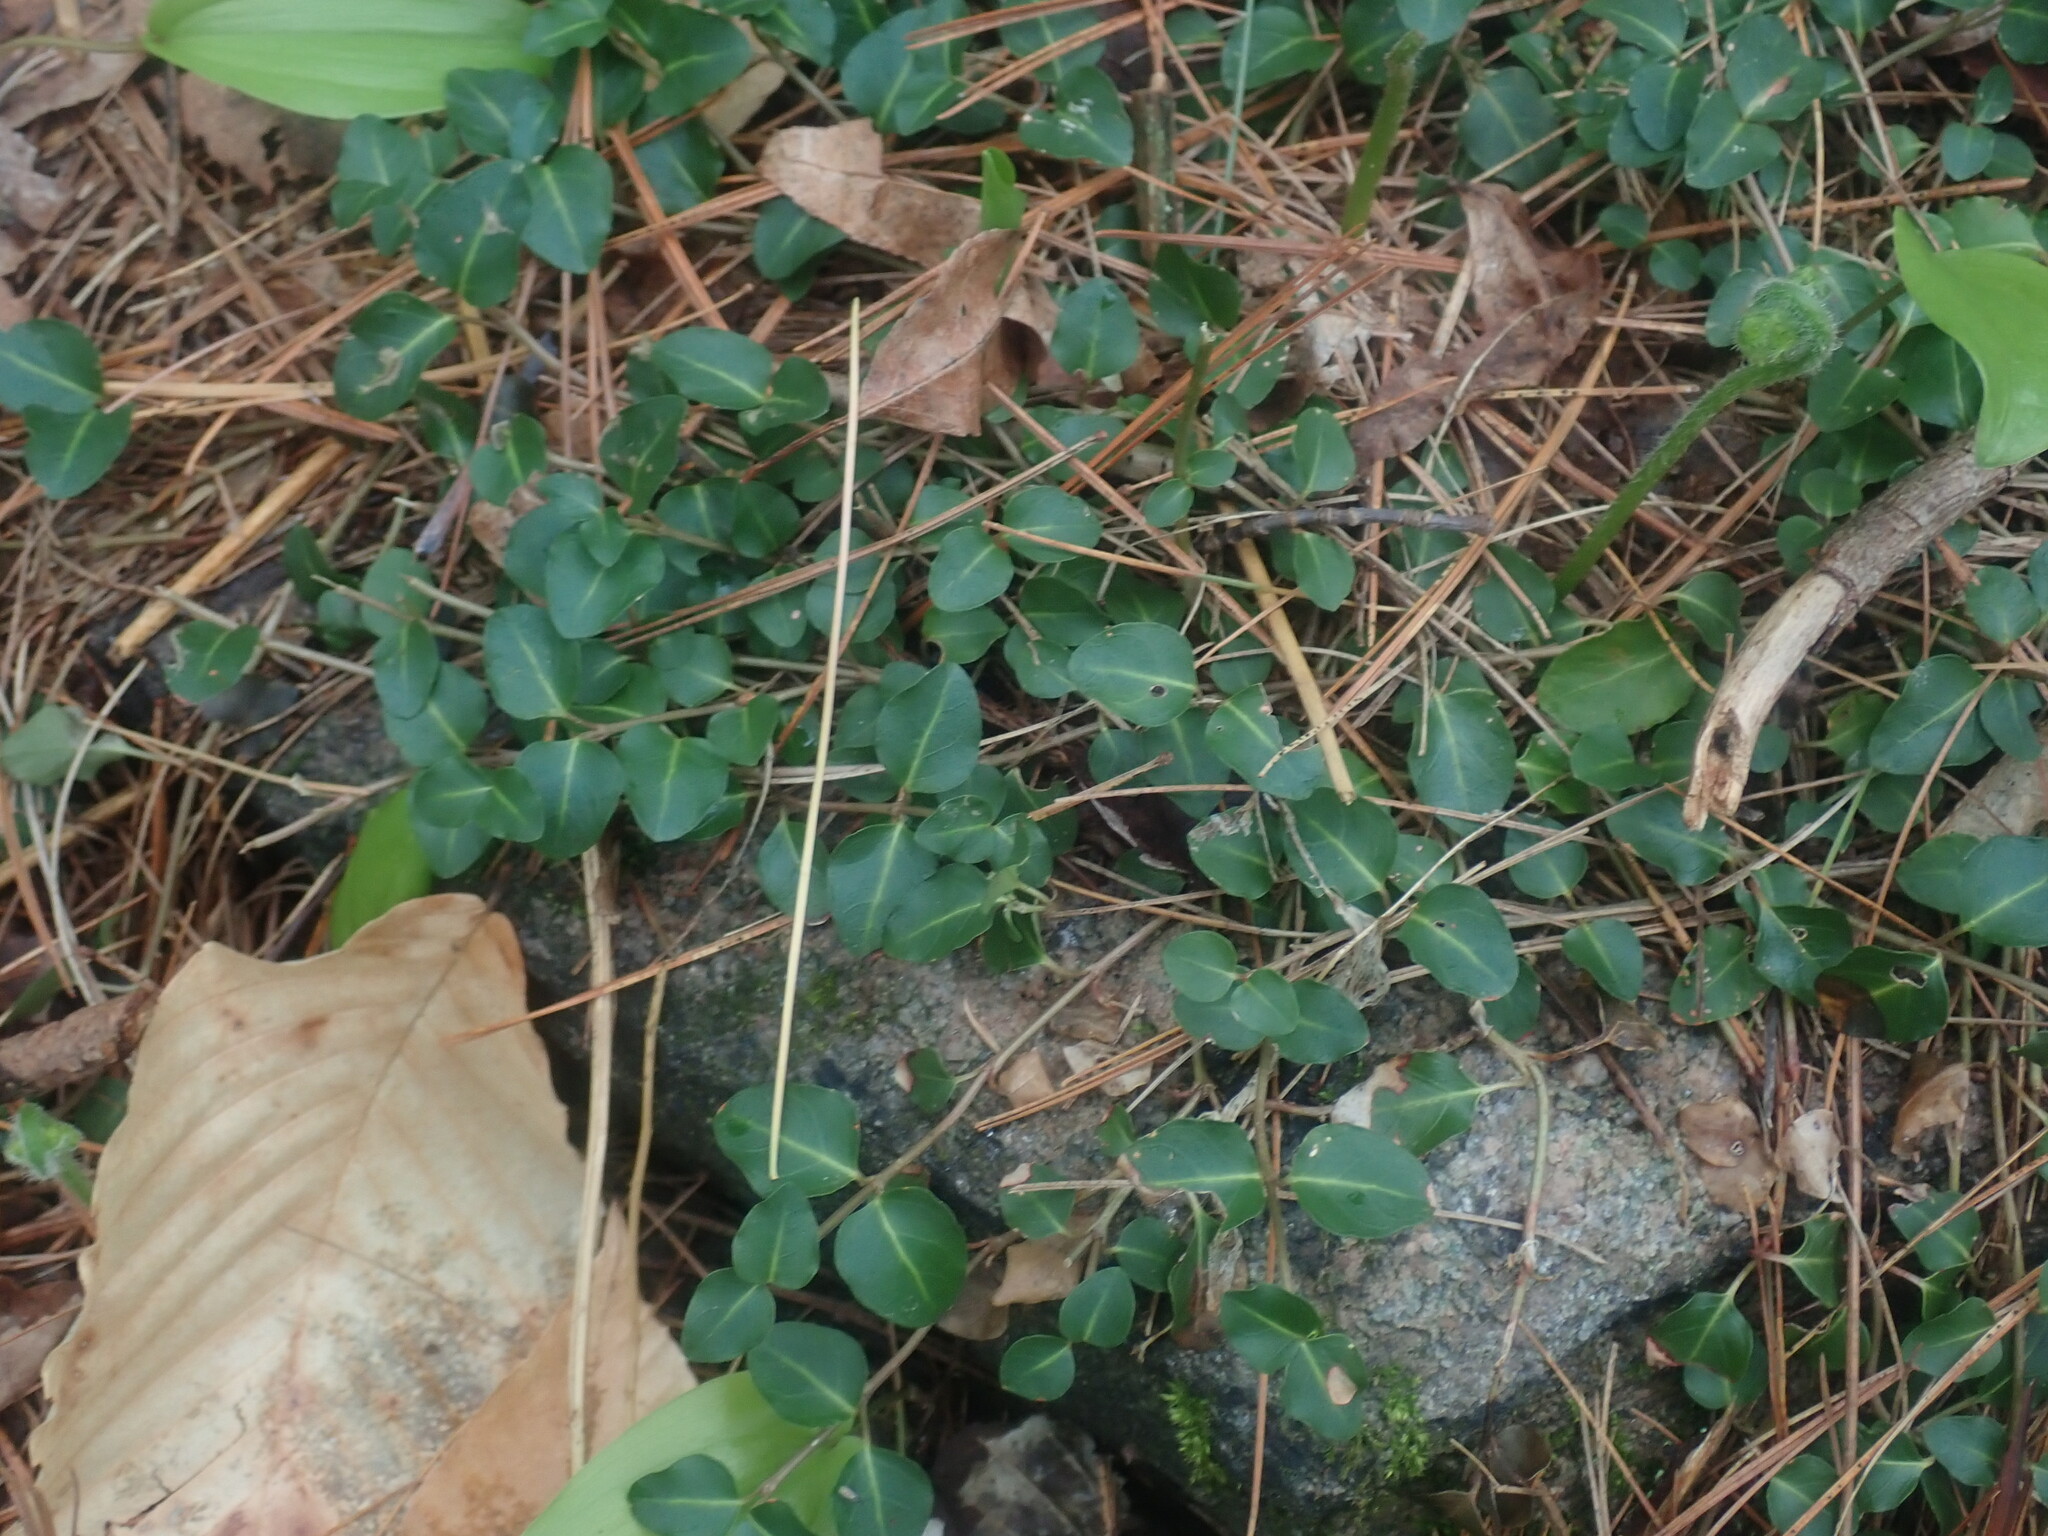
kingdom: Plantae
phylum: Tracheophyta
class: Magnoliopsida
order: Gentianales
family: Rubiaceae
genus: Mitchella
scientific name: Mitchella repens
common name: Partridge-berry
